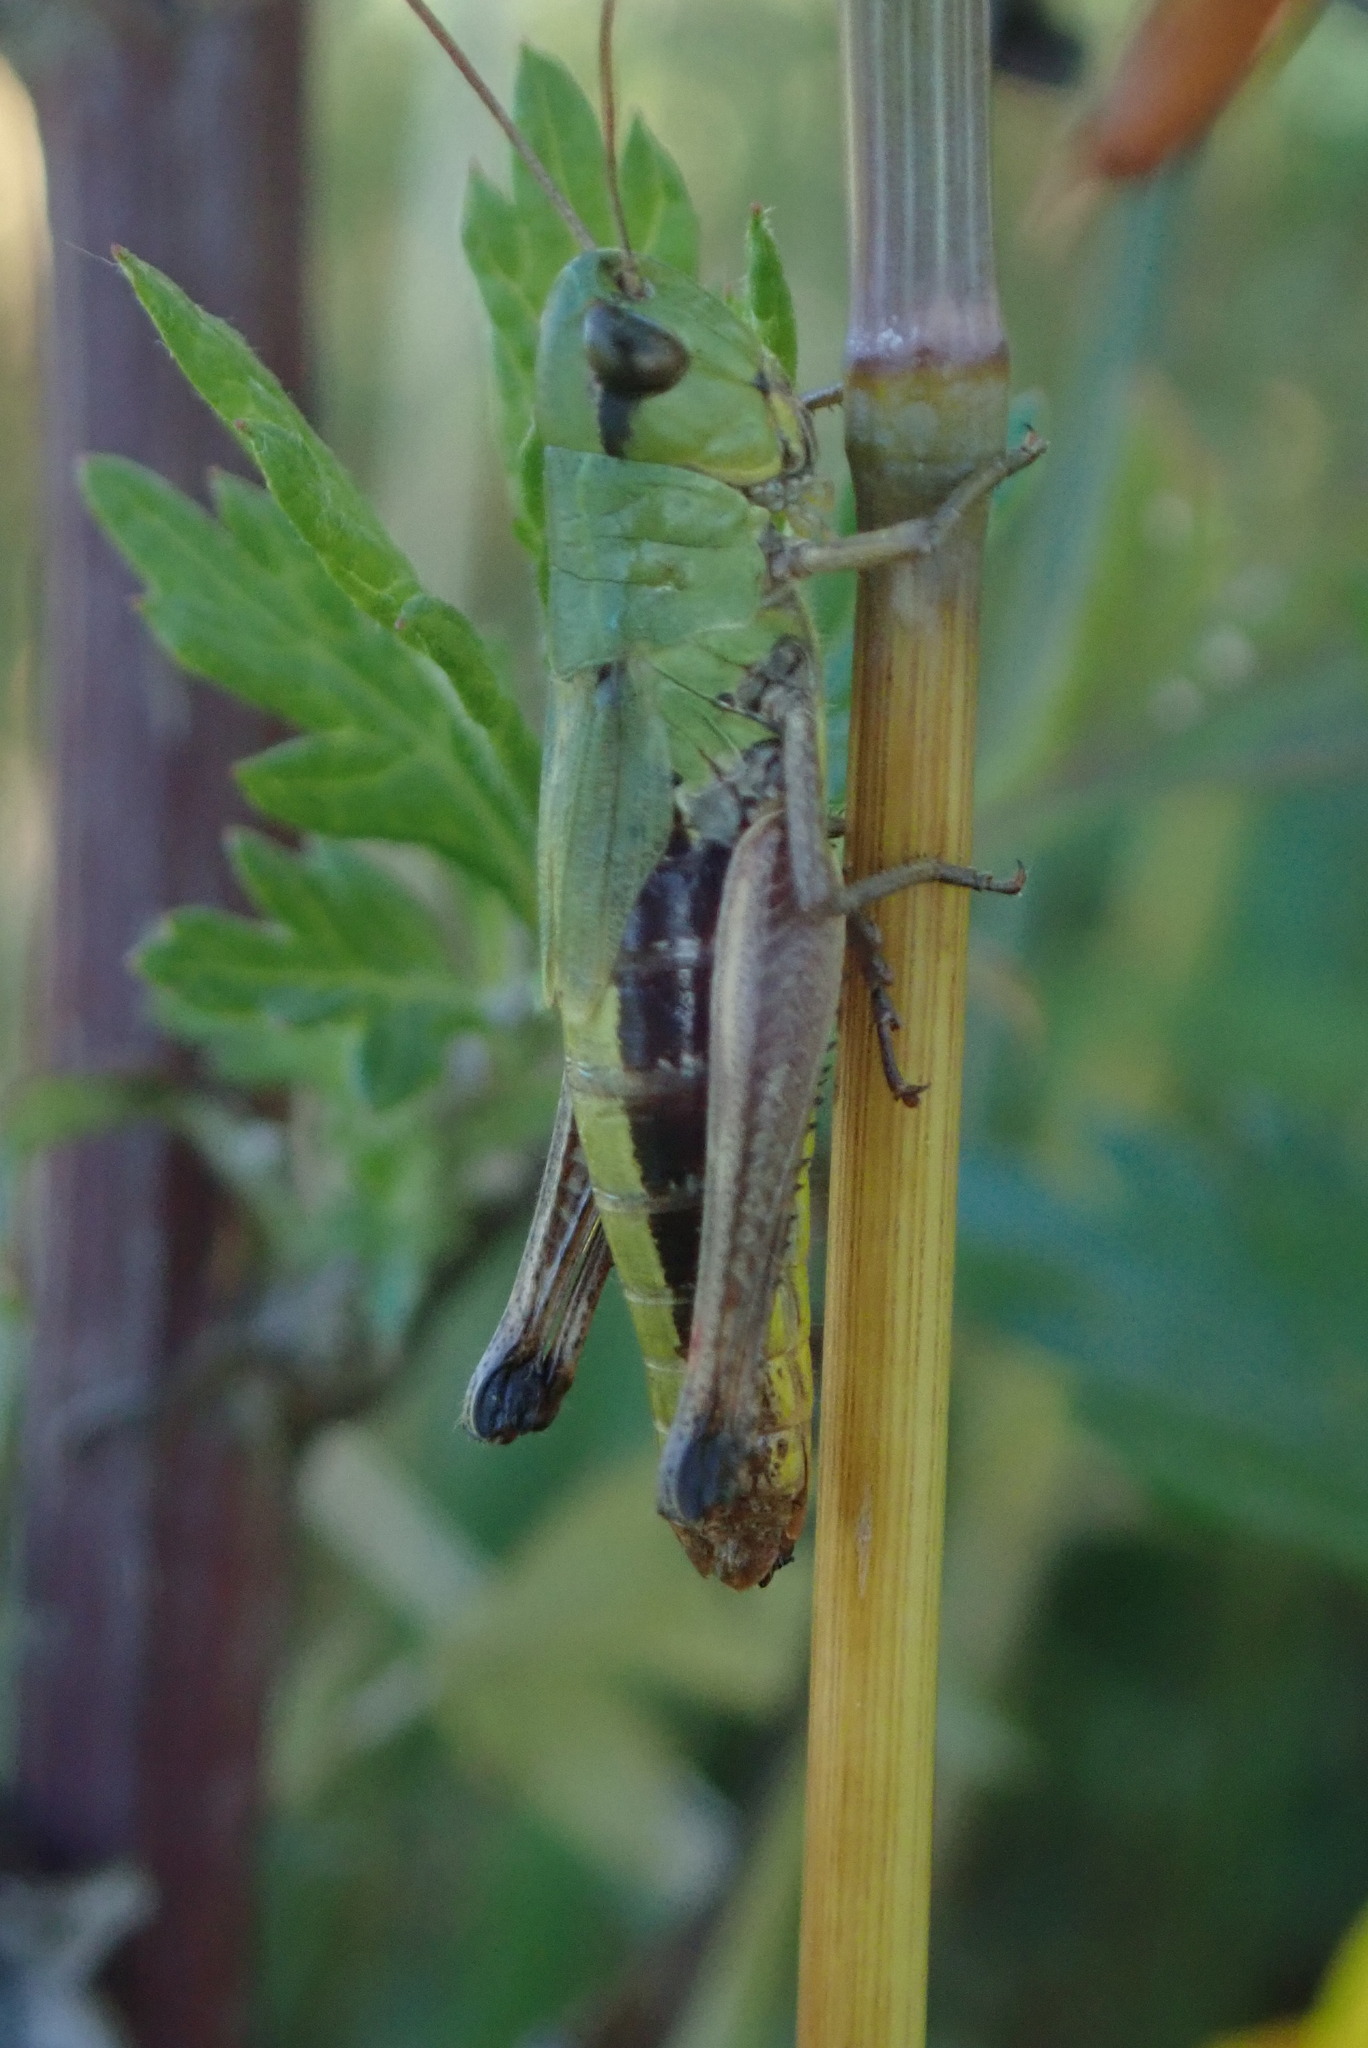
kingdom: Animalia
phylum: Arthropoda
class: Insecta
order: Orthoptera
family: Acrididae
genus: Pseudochorthippus
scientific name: Pseudochorthippus parallelus
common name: Meadow grasshopper
